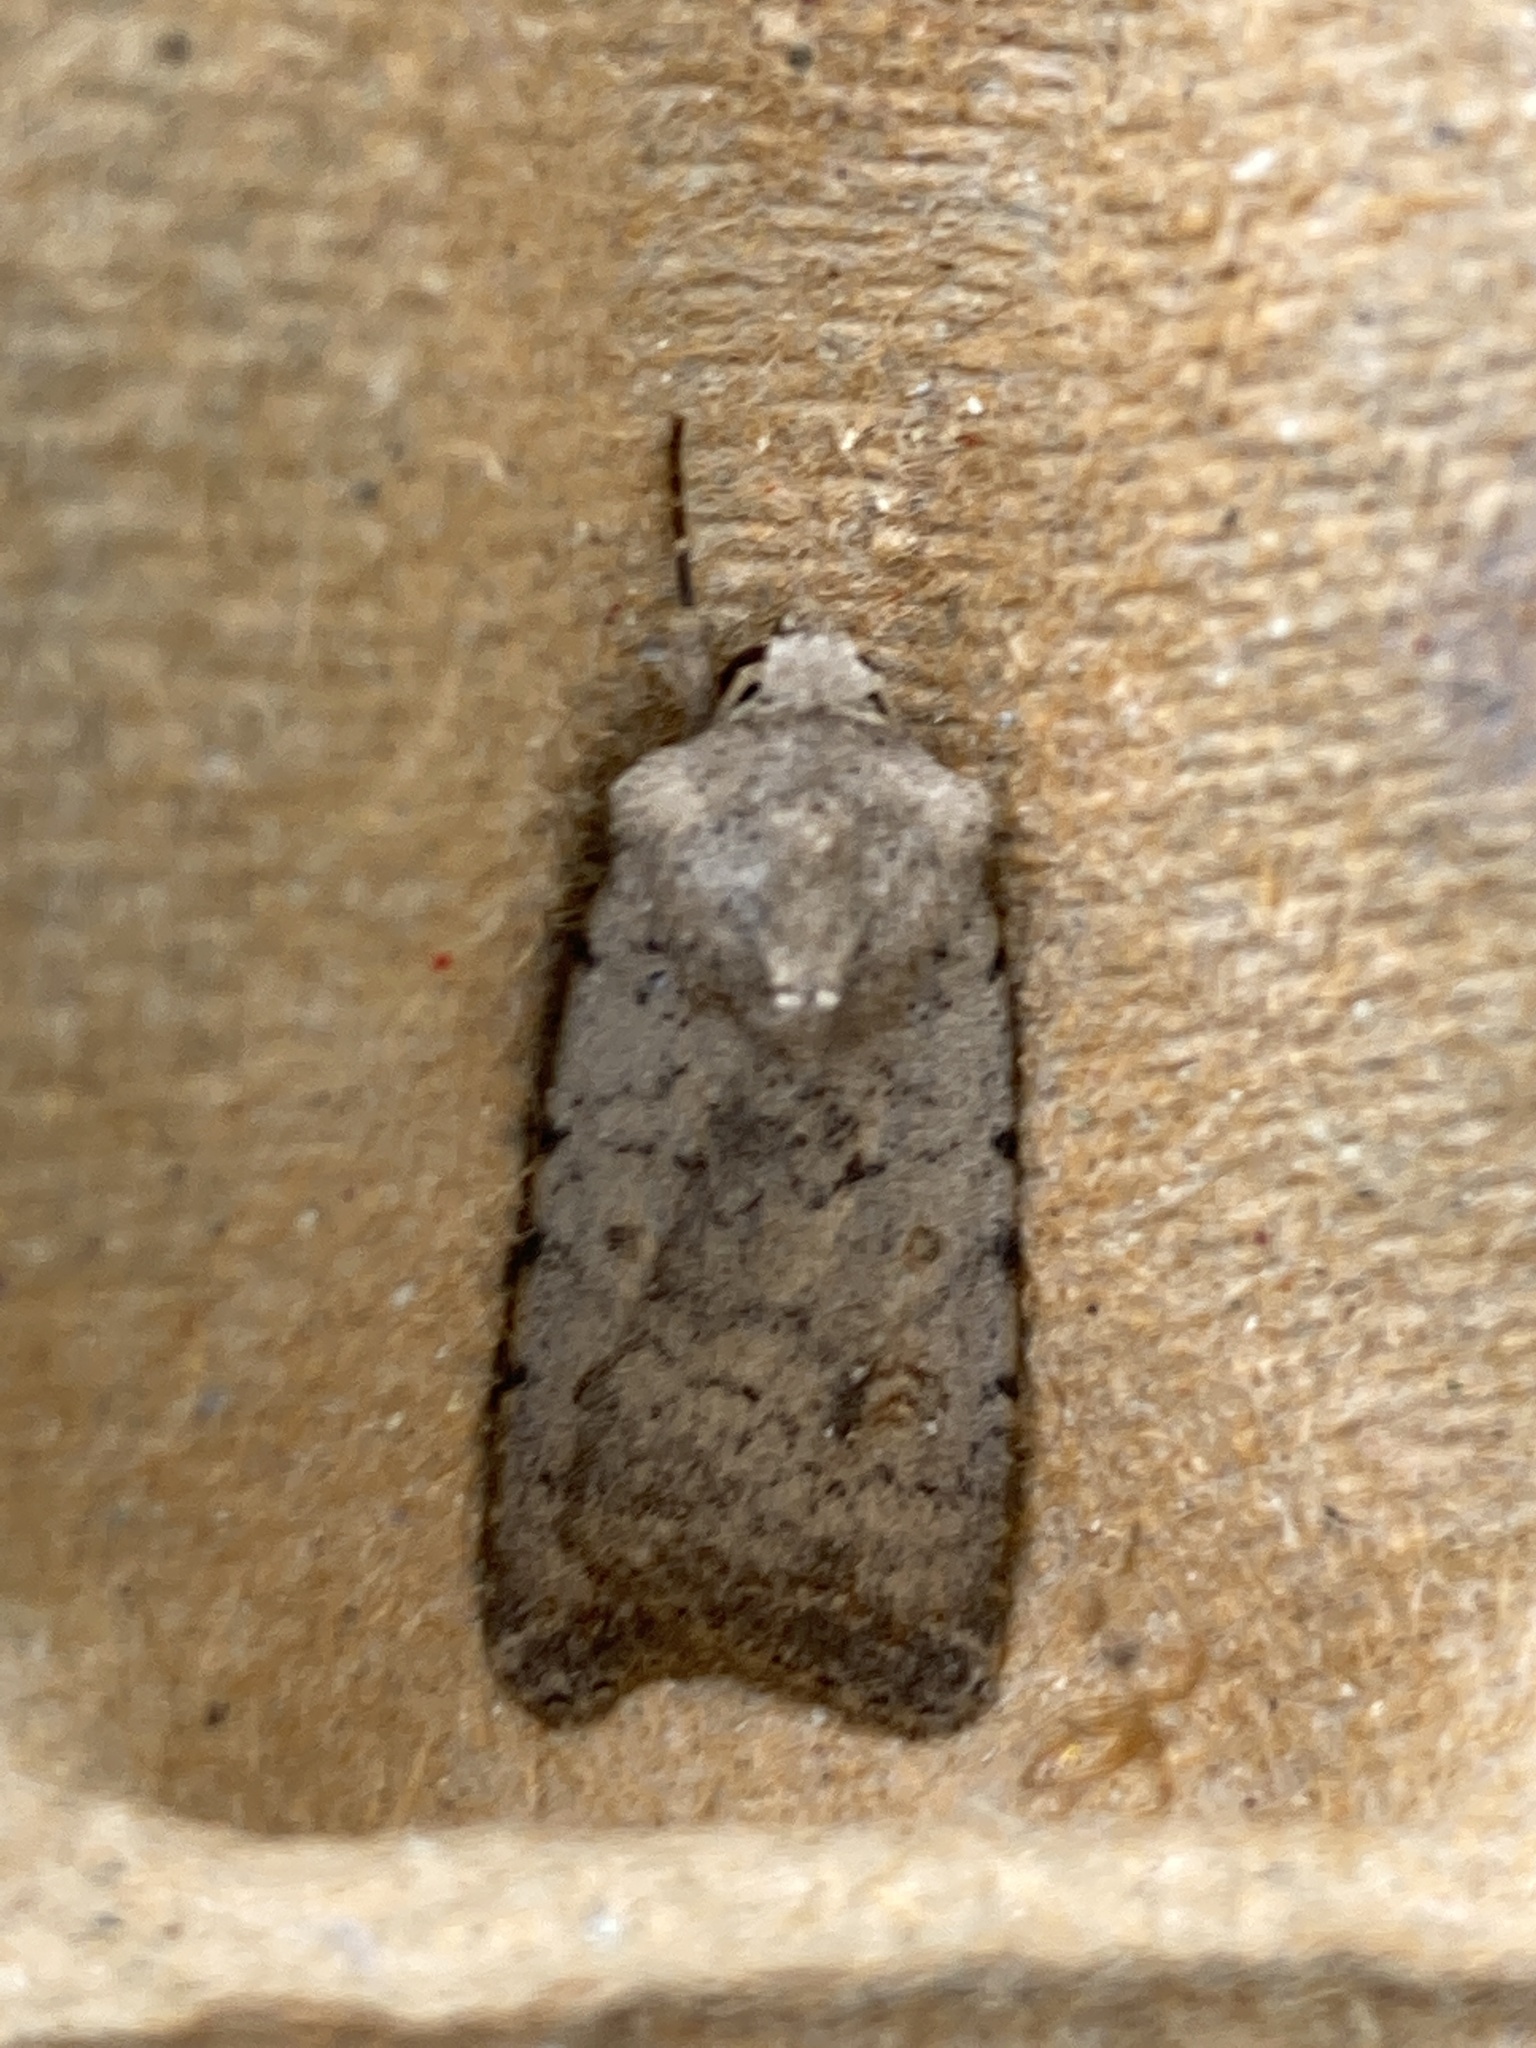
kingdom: Animalia
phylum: Arthropoda
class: Insecta
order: Lepidoptera
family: Noctuidae
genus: Caradrina
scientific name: Caradrina clavipalpis
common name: Pale mottled willow
